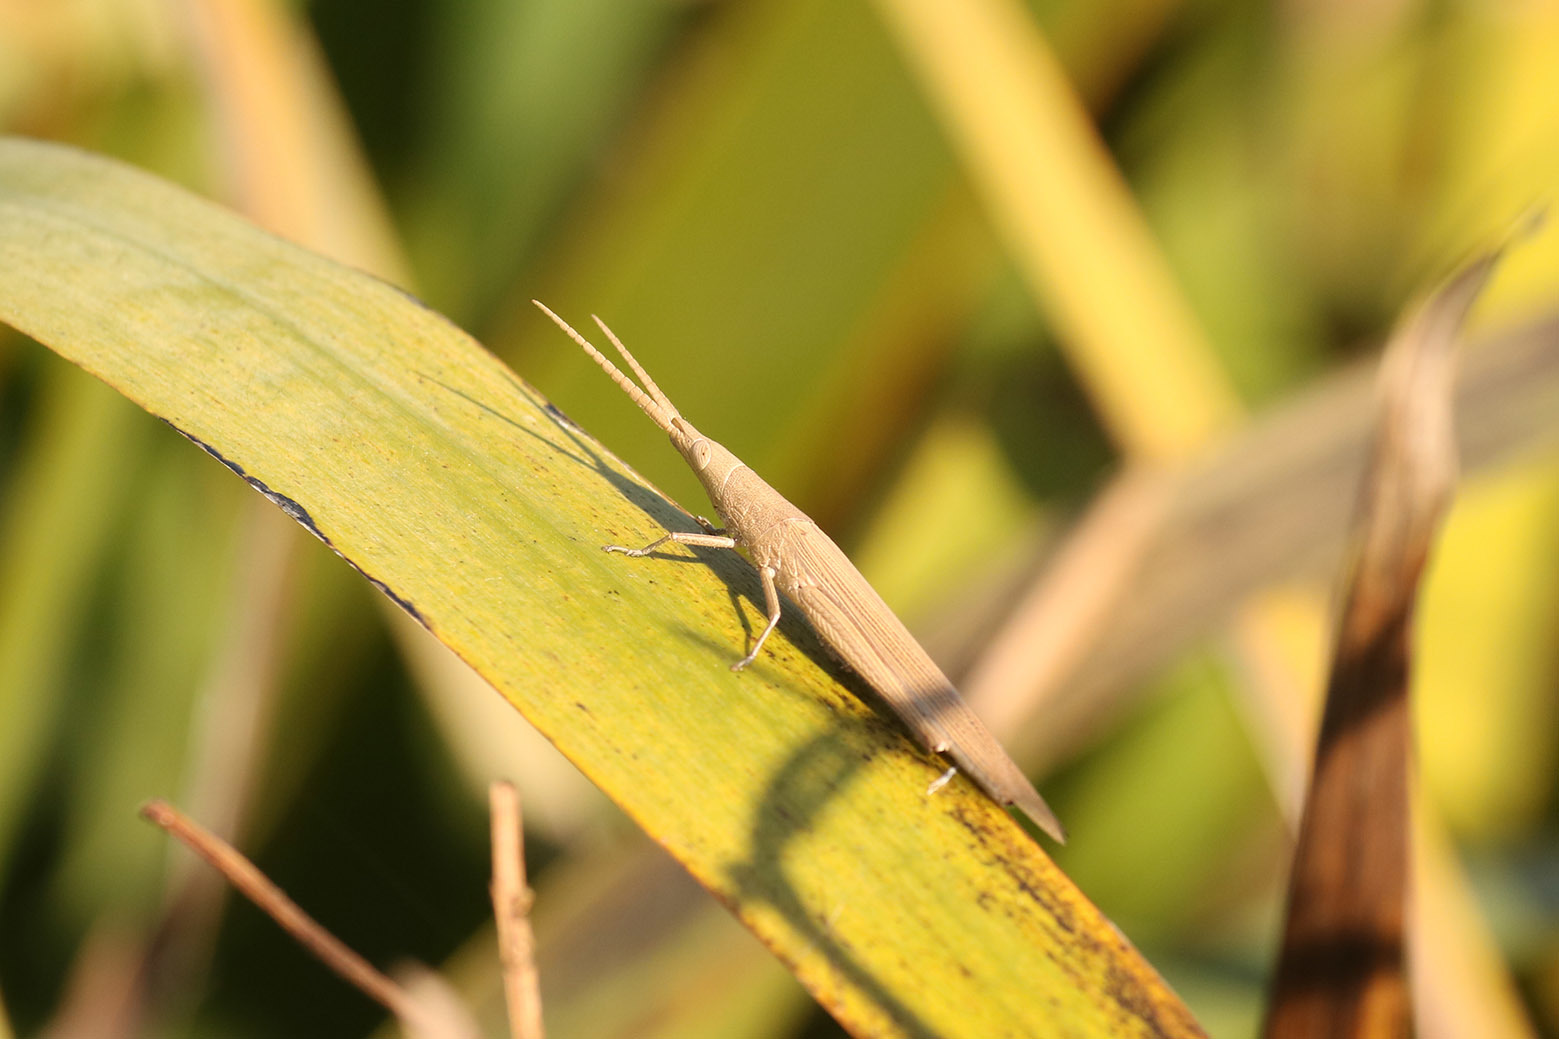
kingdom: Animalia
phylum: Arthropoda
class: Insecta
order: Orthoptera
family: Acrididae
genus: Haroldgrantia
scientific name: Haroldgrantia lignosa
